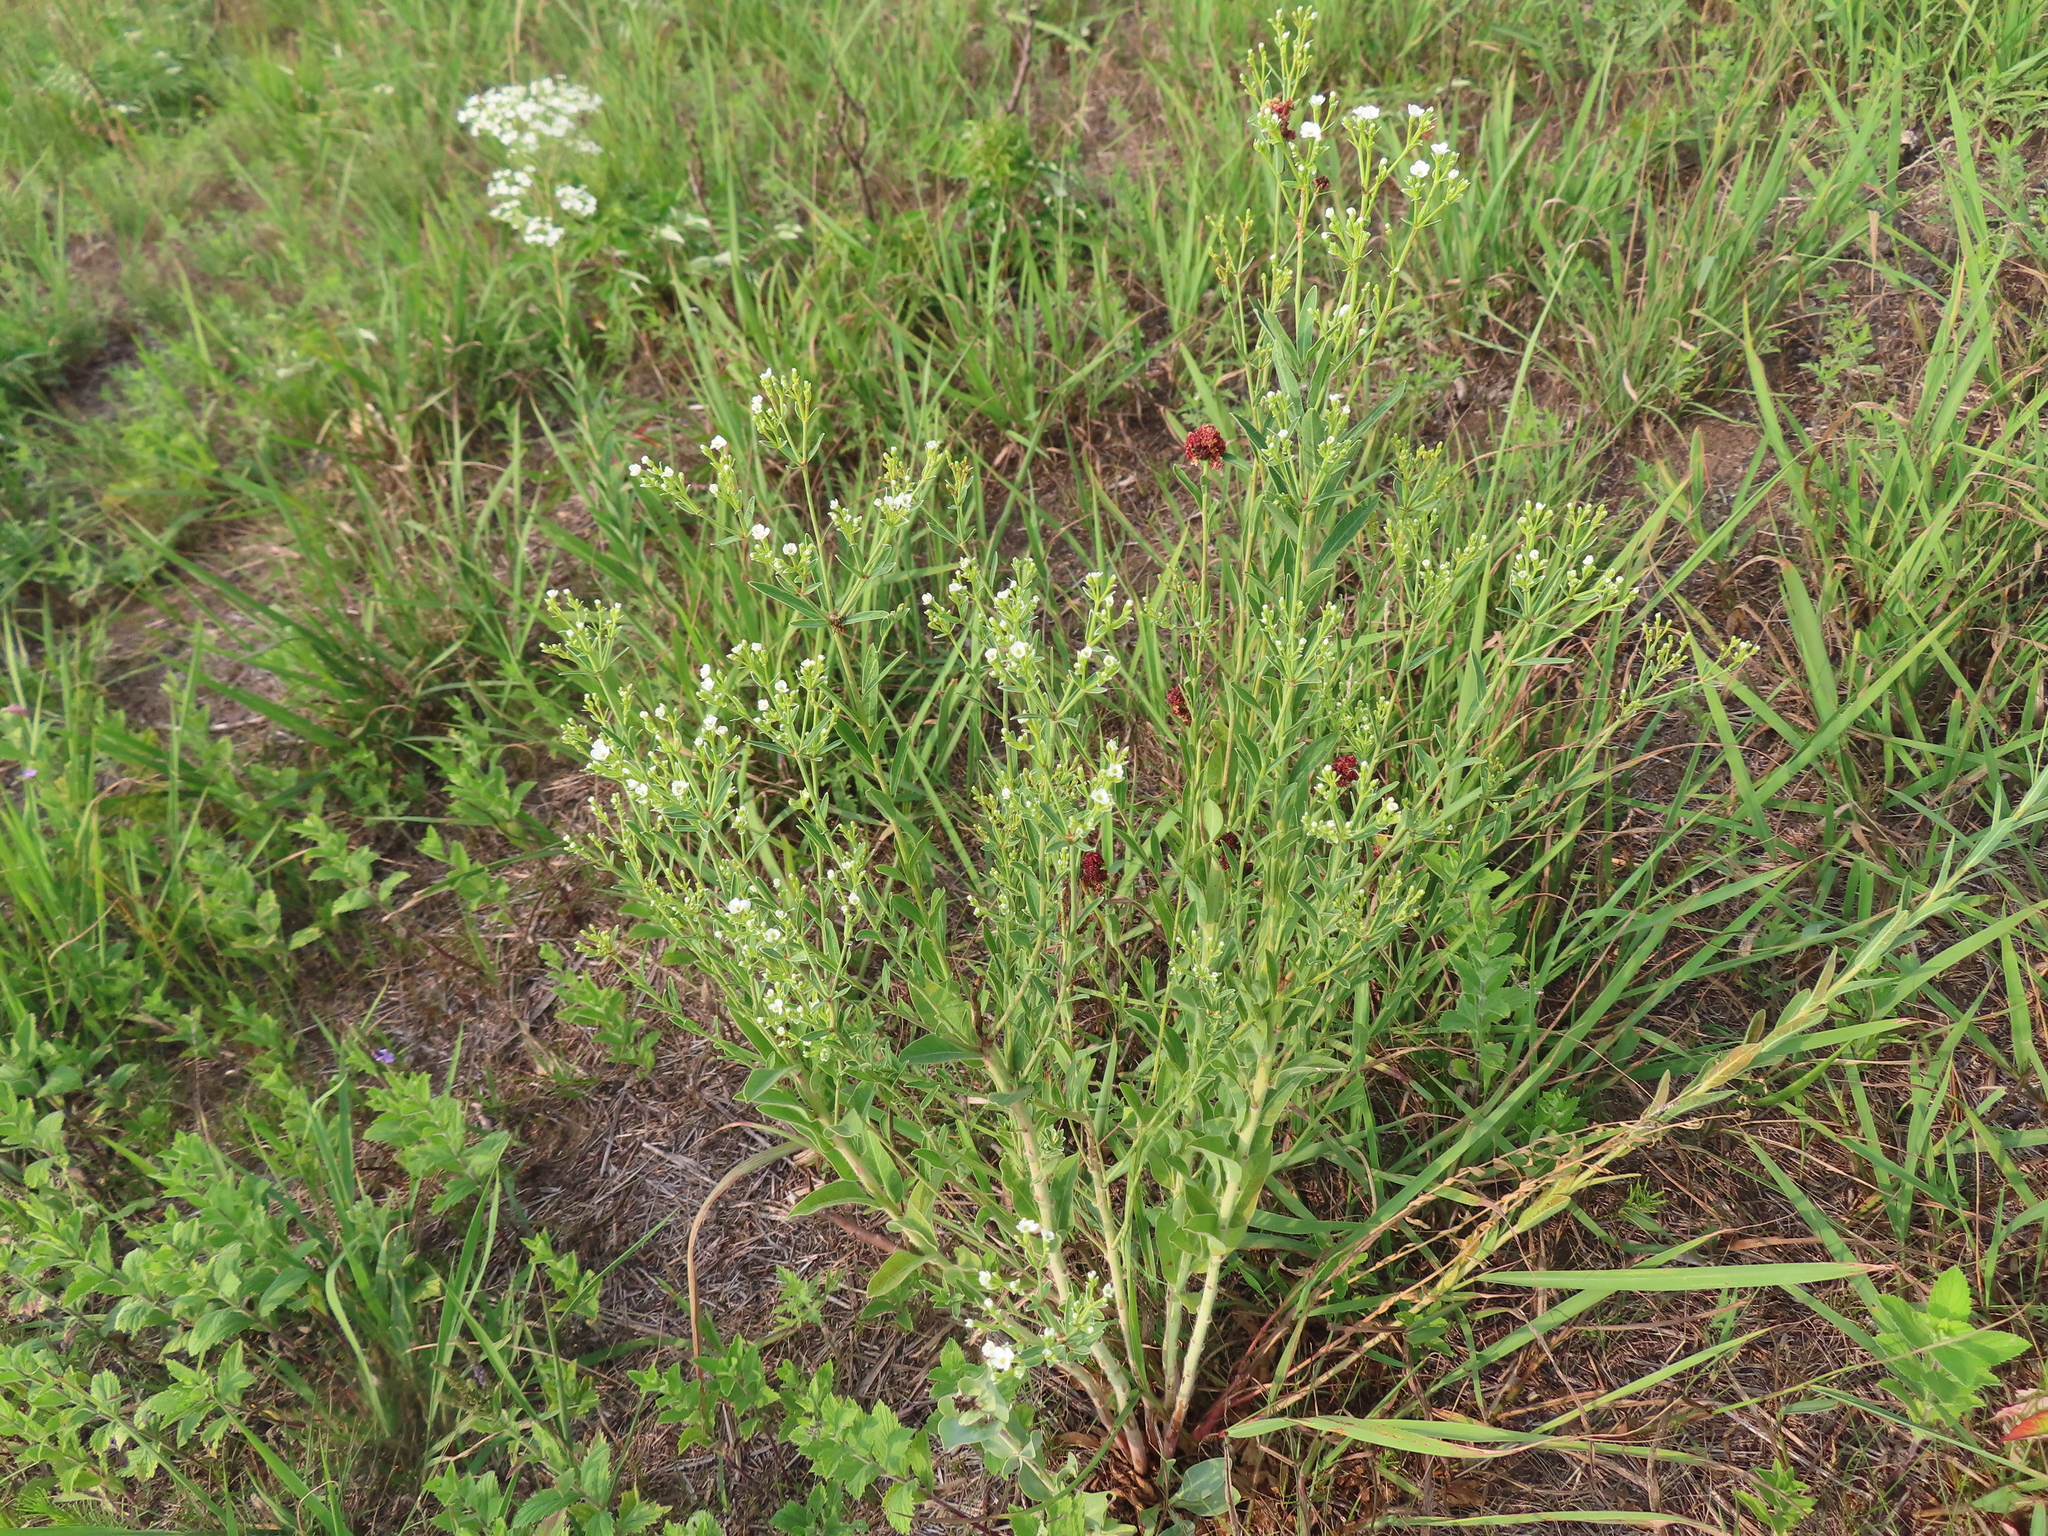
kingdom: Plantae
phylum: Tracheophyta
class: Magnoliopsida
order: Malpighiales
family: Euphorbiaceae
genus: Euphorbia
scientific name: Euphorbia corollata
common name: Flowering spurge
